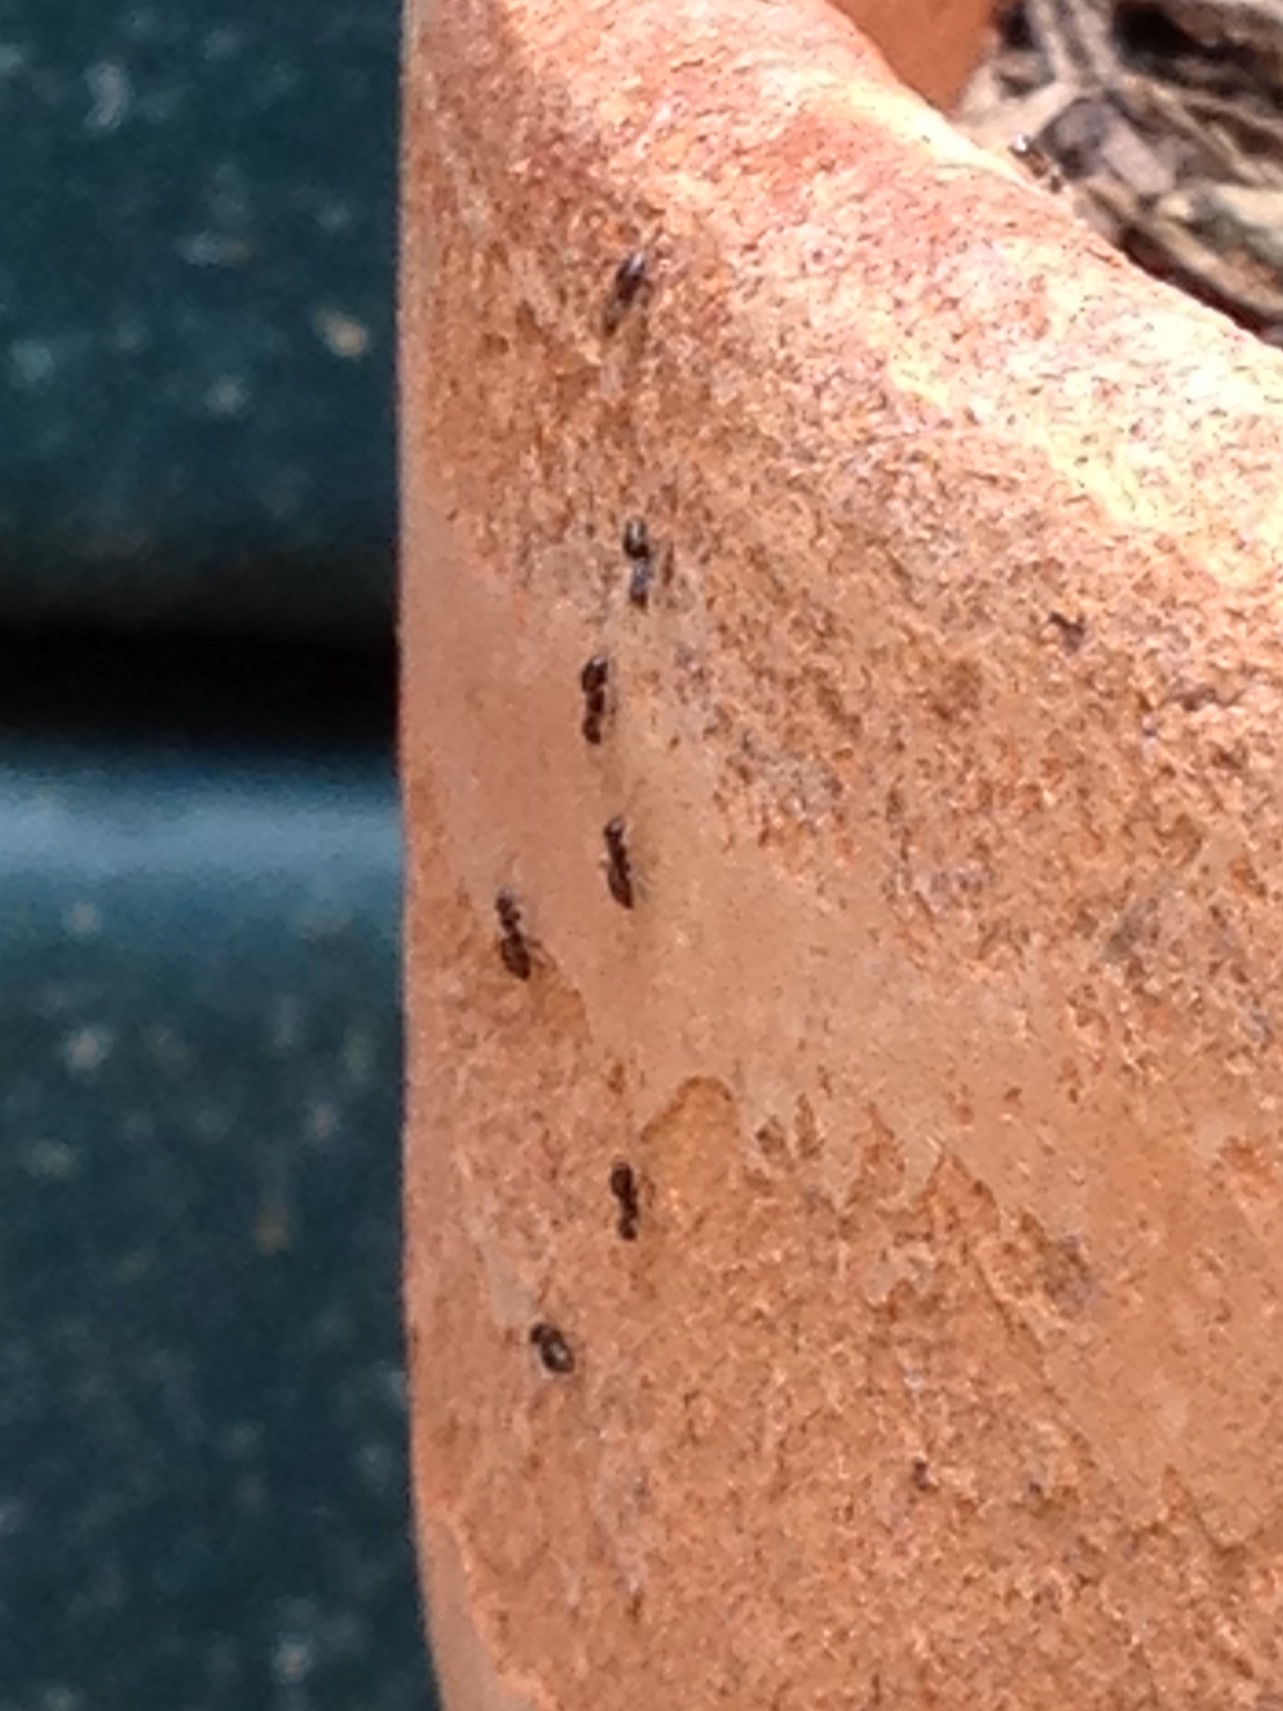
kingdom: Animalia
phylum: Arthropoda
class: Insecta
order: Hymenoptera
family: Formicidae
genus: Brachymyrmex
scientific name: Brachymyrmex patagonicus
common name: Dark rover ant
